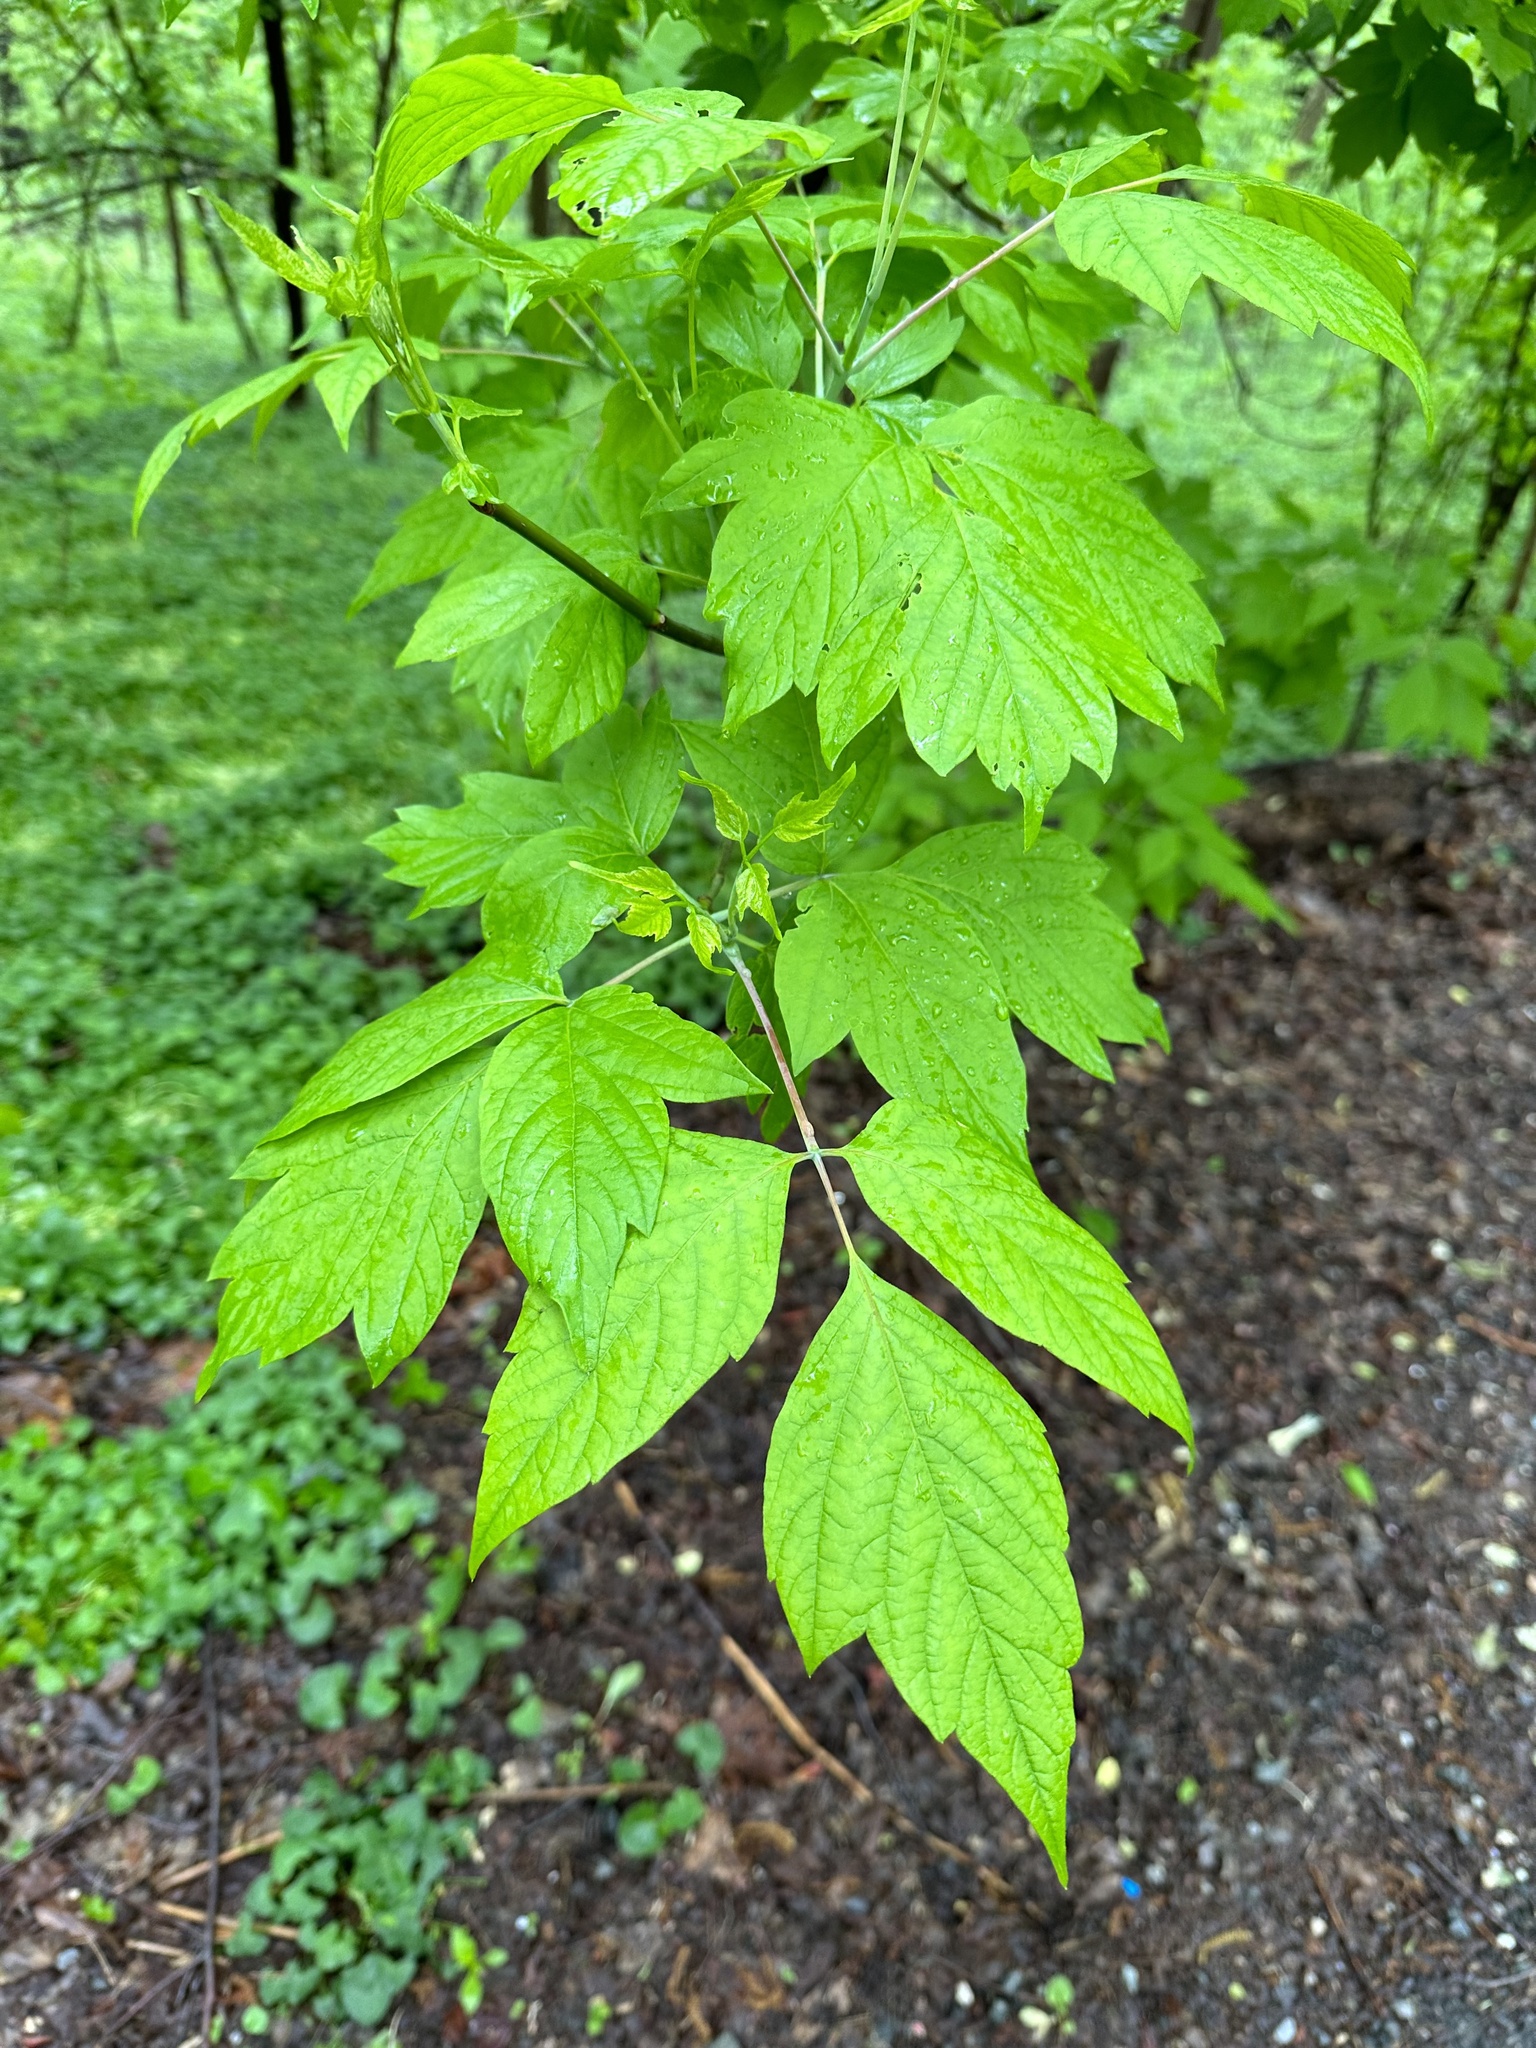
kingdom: Plantae
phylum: Tracheophyta
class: Magnoliopsida
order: Sapindales
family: Sapindaceae
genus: Acer
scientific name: Acer negundo
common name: Ashleaf maple
